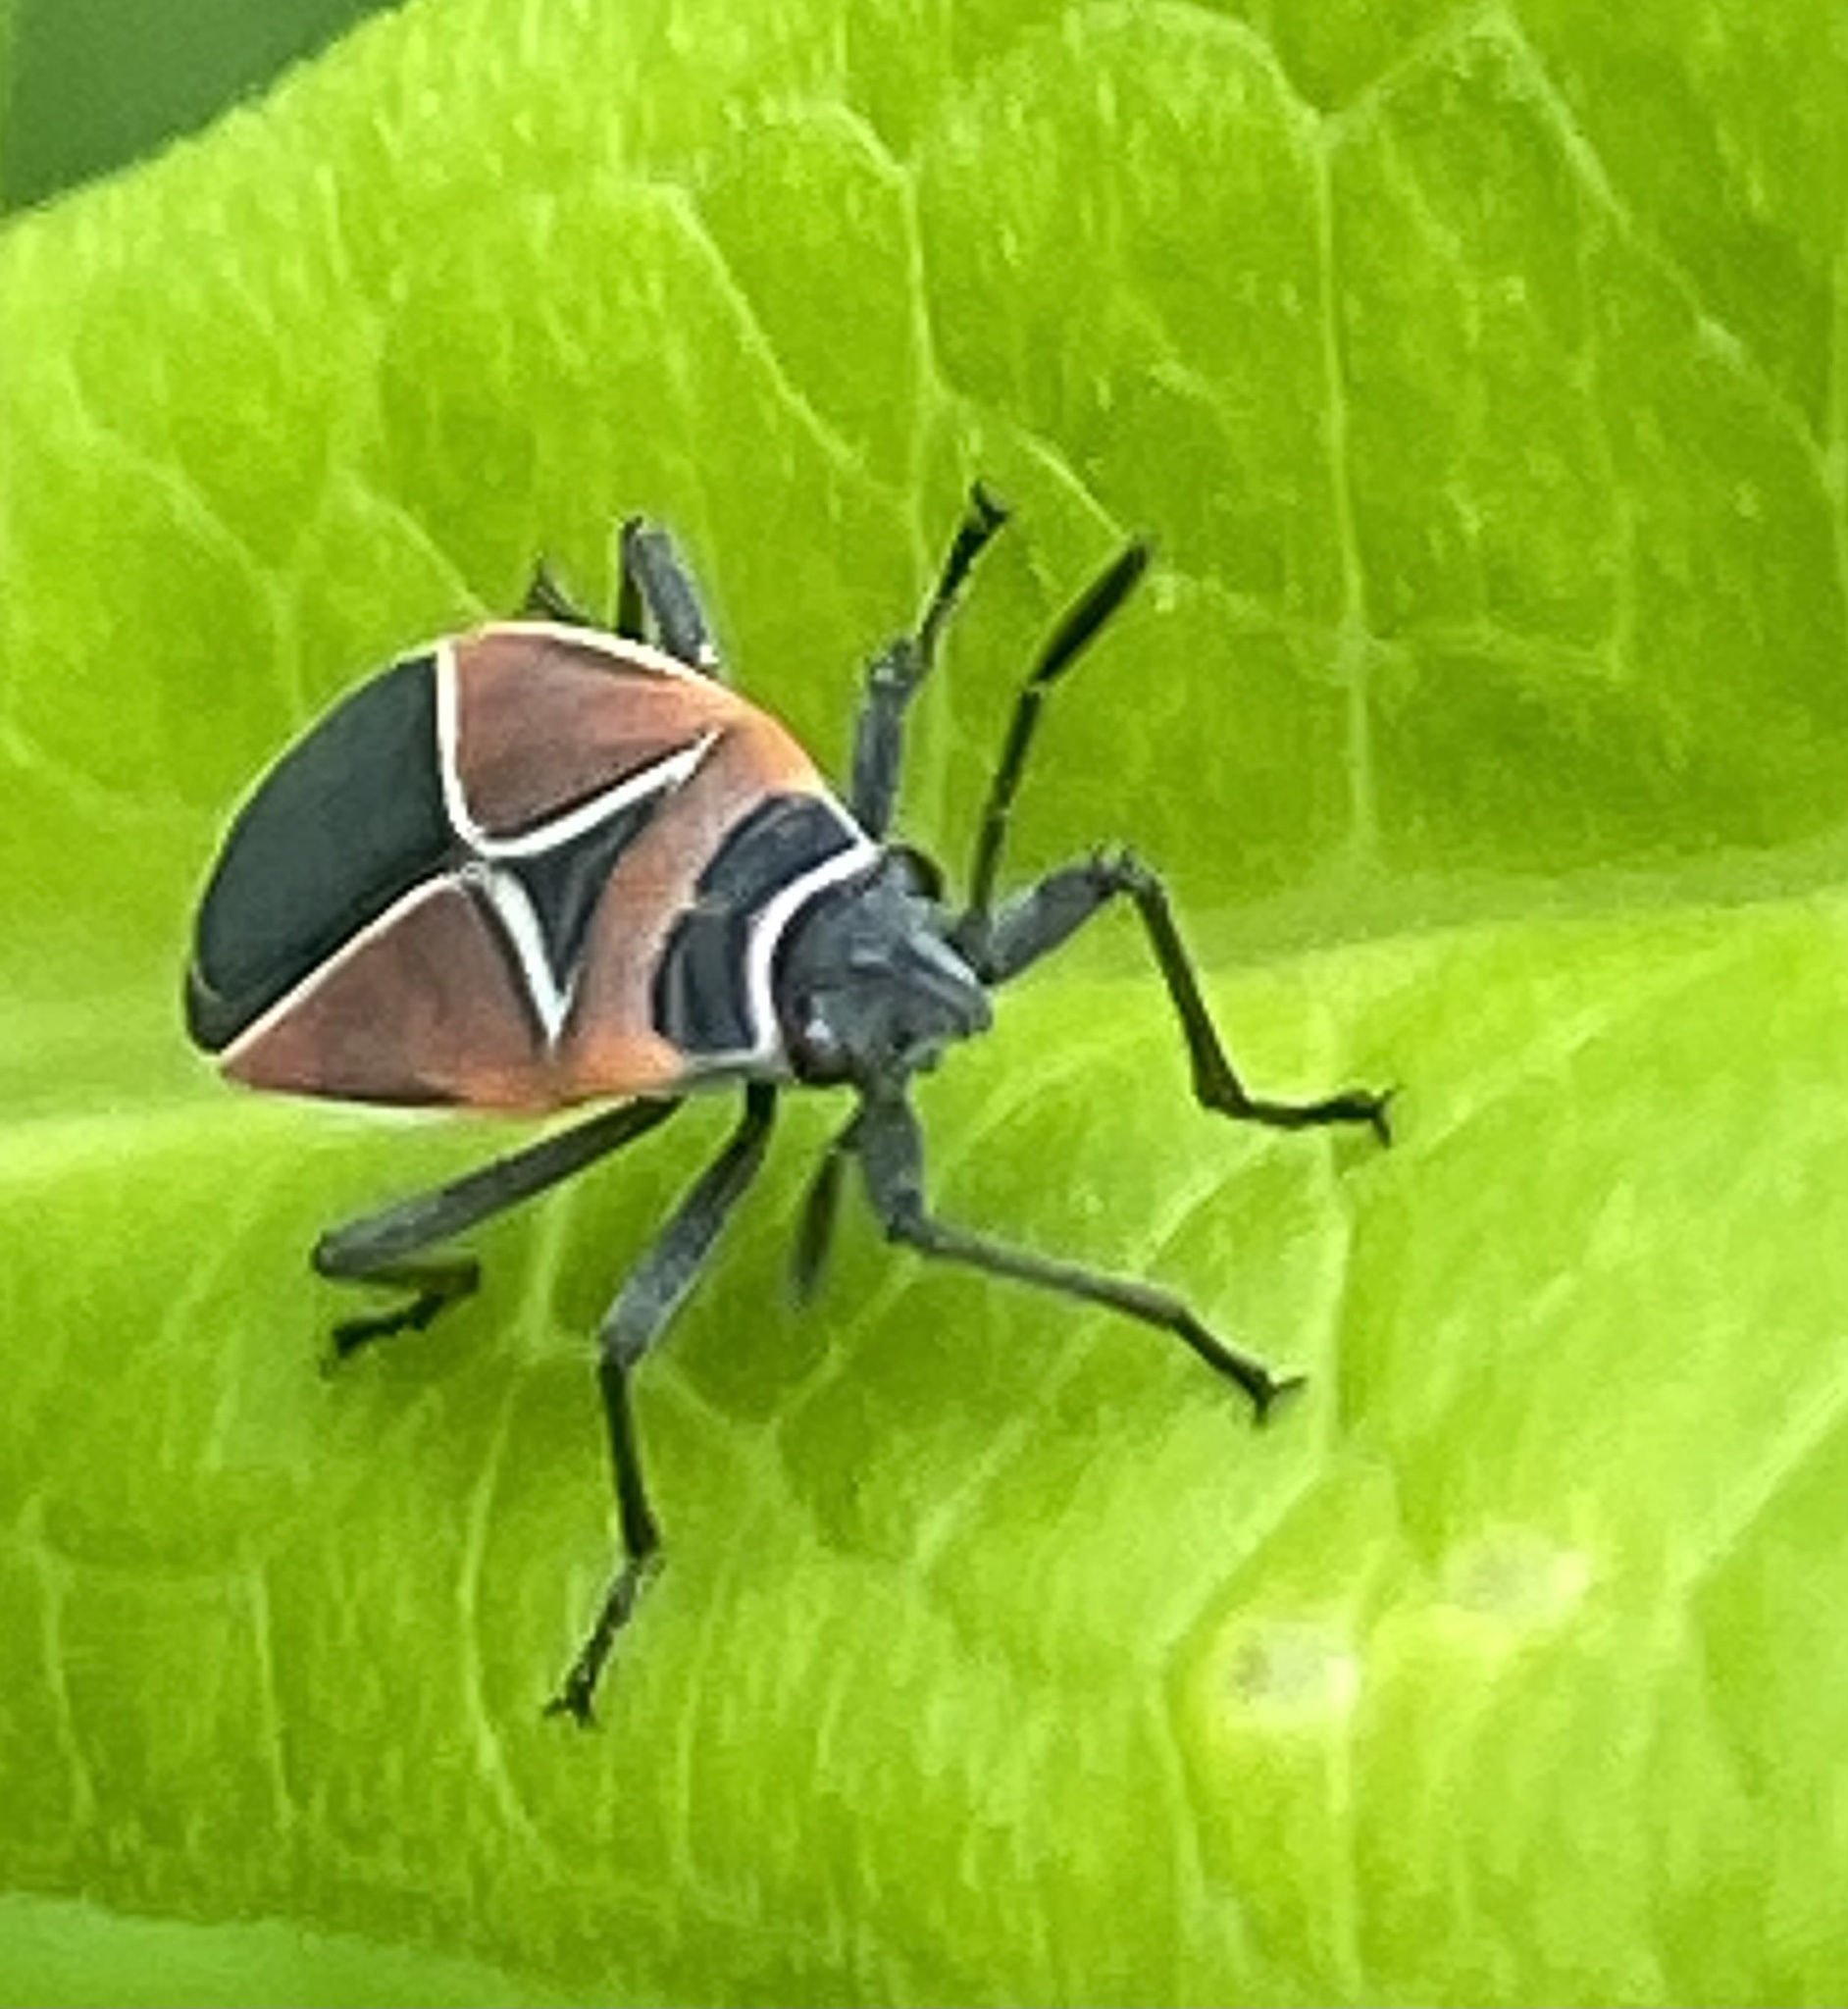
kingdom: Animalia
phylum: Arthropoda
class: Insecta
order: Hemiptera
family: Lygaeidae
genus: Neacoryphus
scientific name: Neacoryphus bicrucis
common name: Lygaeid bug
